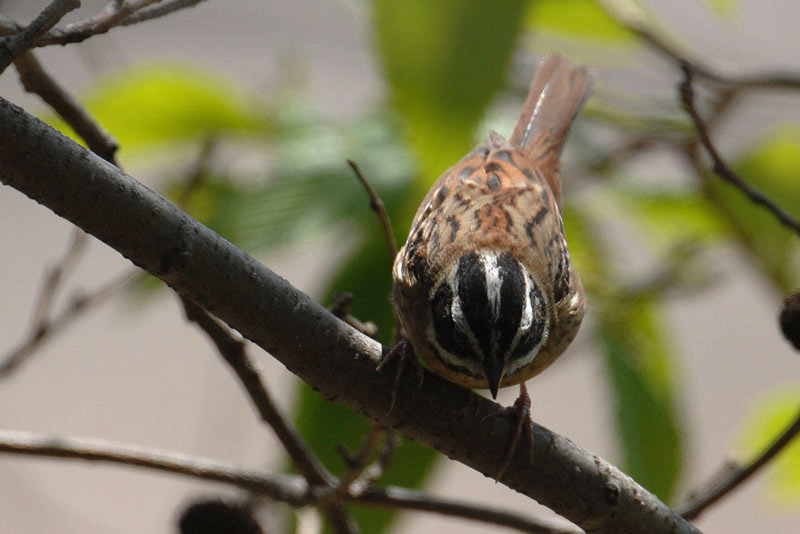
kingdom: Animalia
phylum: Chordata
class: Aves
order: Passeriformes
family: Emberizidae
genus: Emberiza
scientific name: Emberiza tristrami
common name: Tristram's bunting
